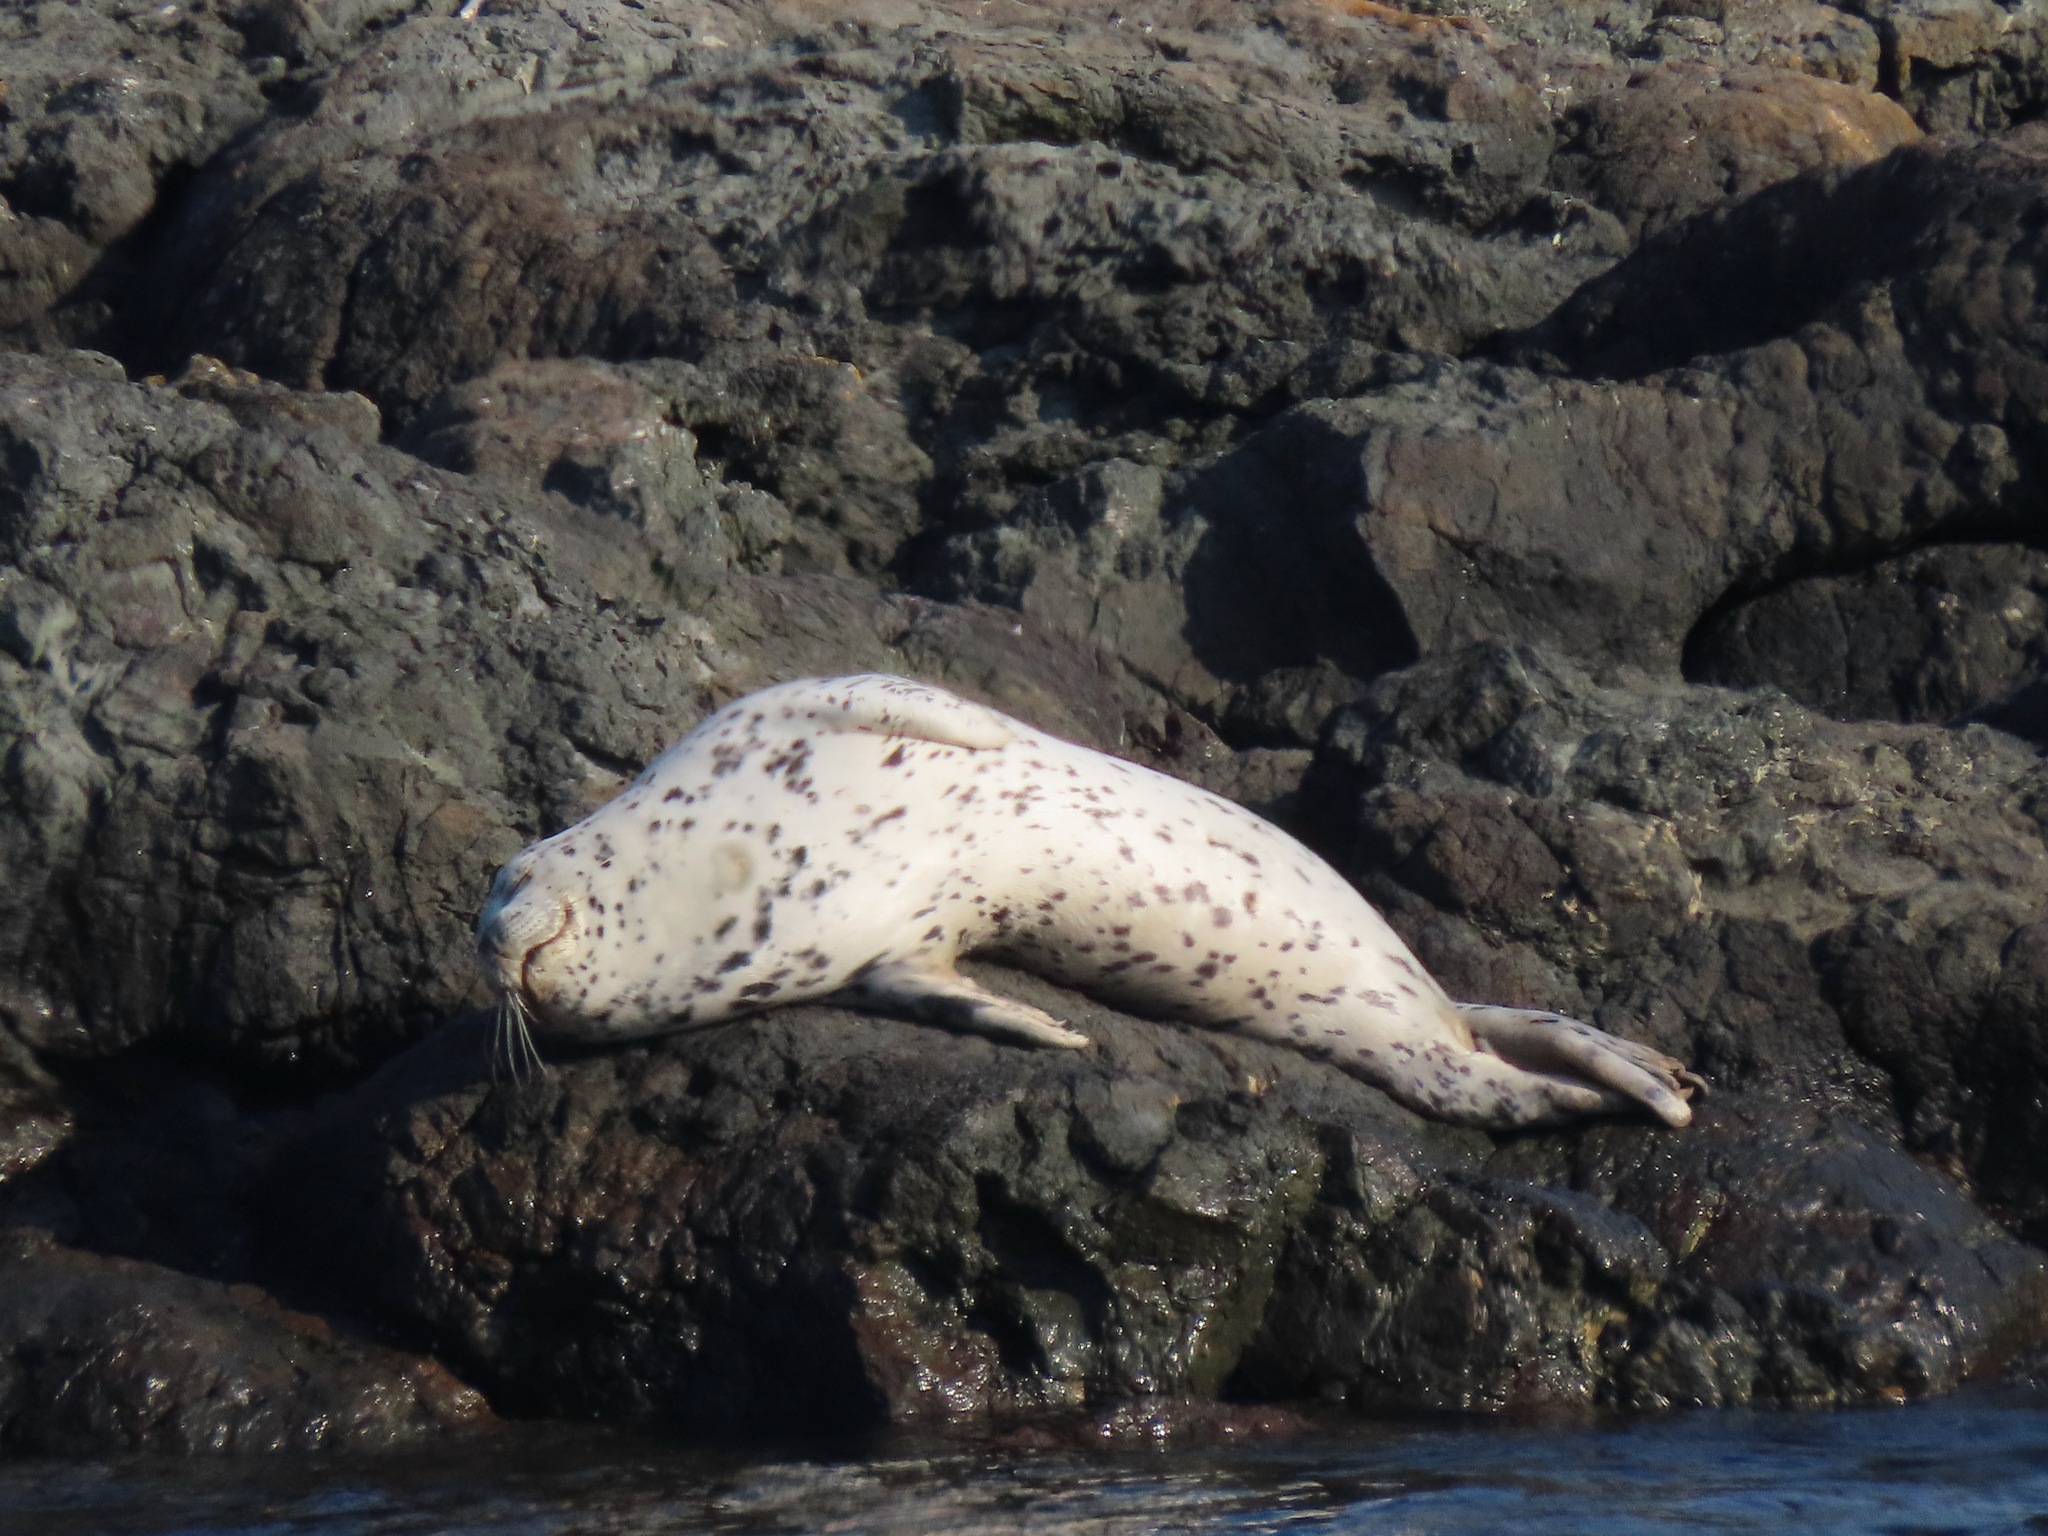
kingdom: Animalia
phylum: Chordata
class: Mammalia
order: Carnivora
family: Phocidae
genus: Phoca
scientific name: Phoca vitulina
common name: Harbor seal
